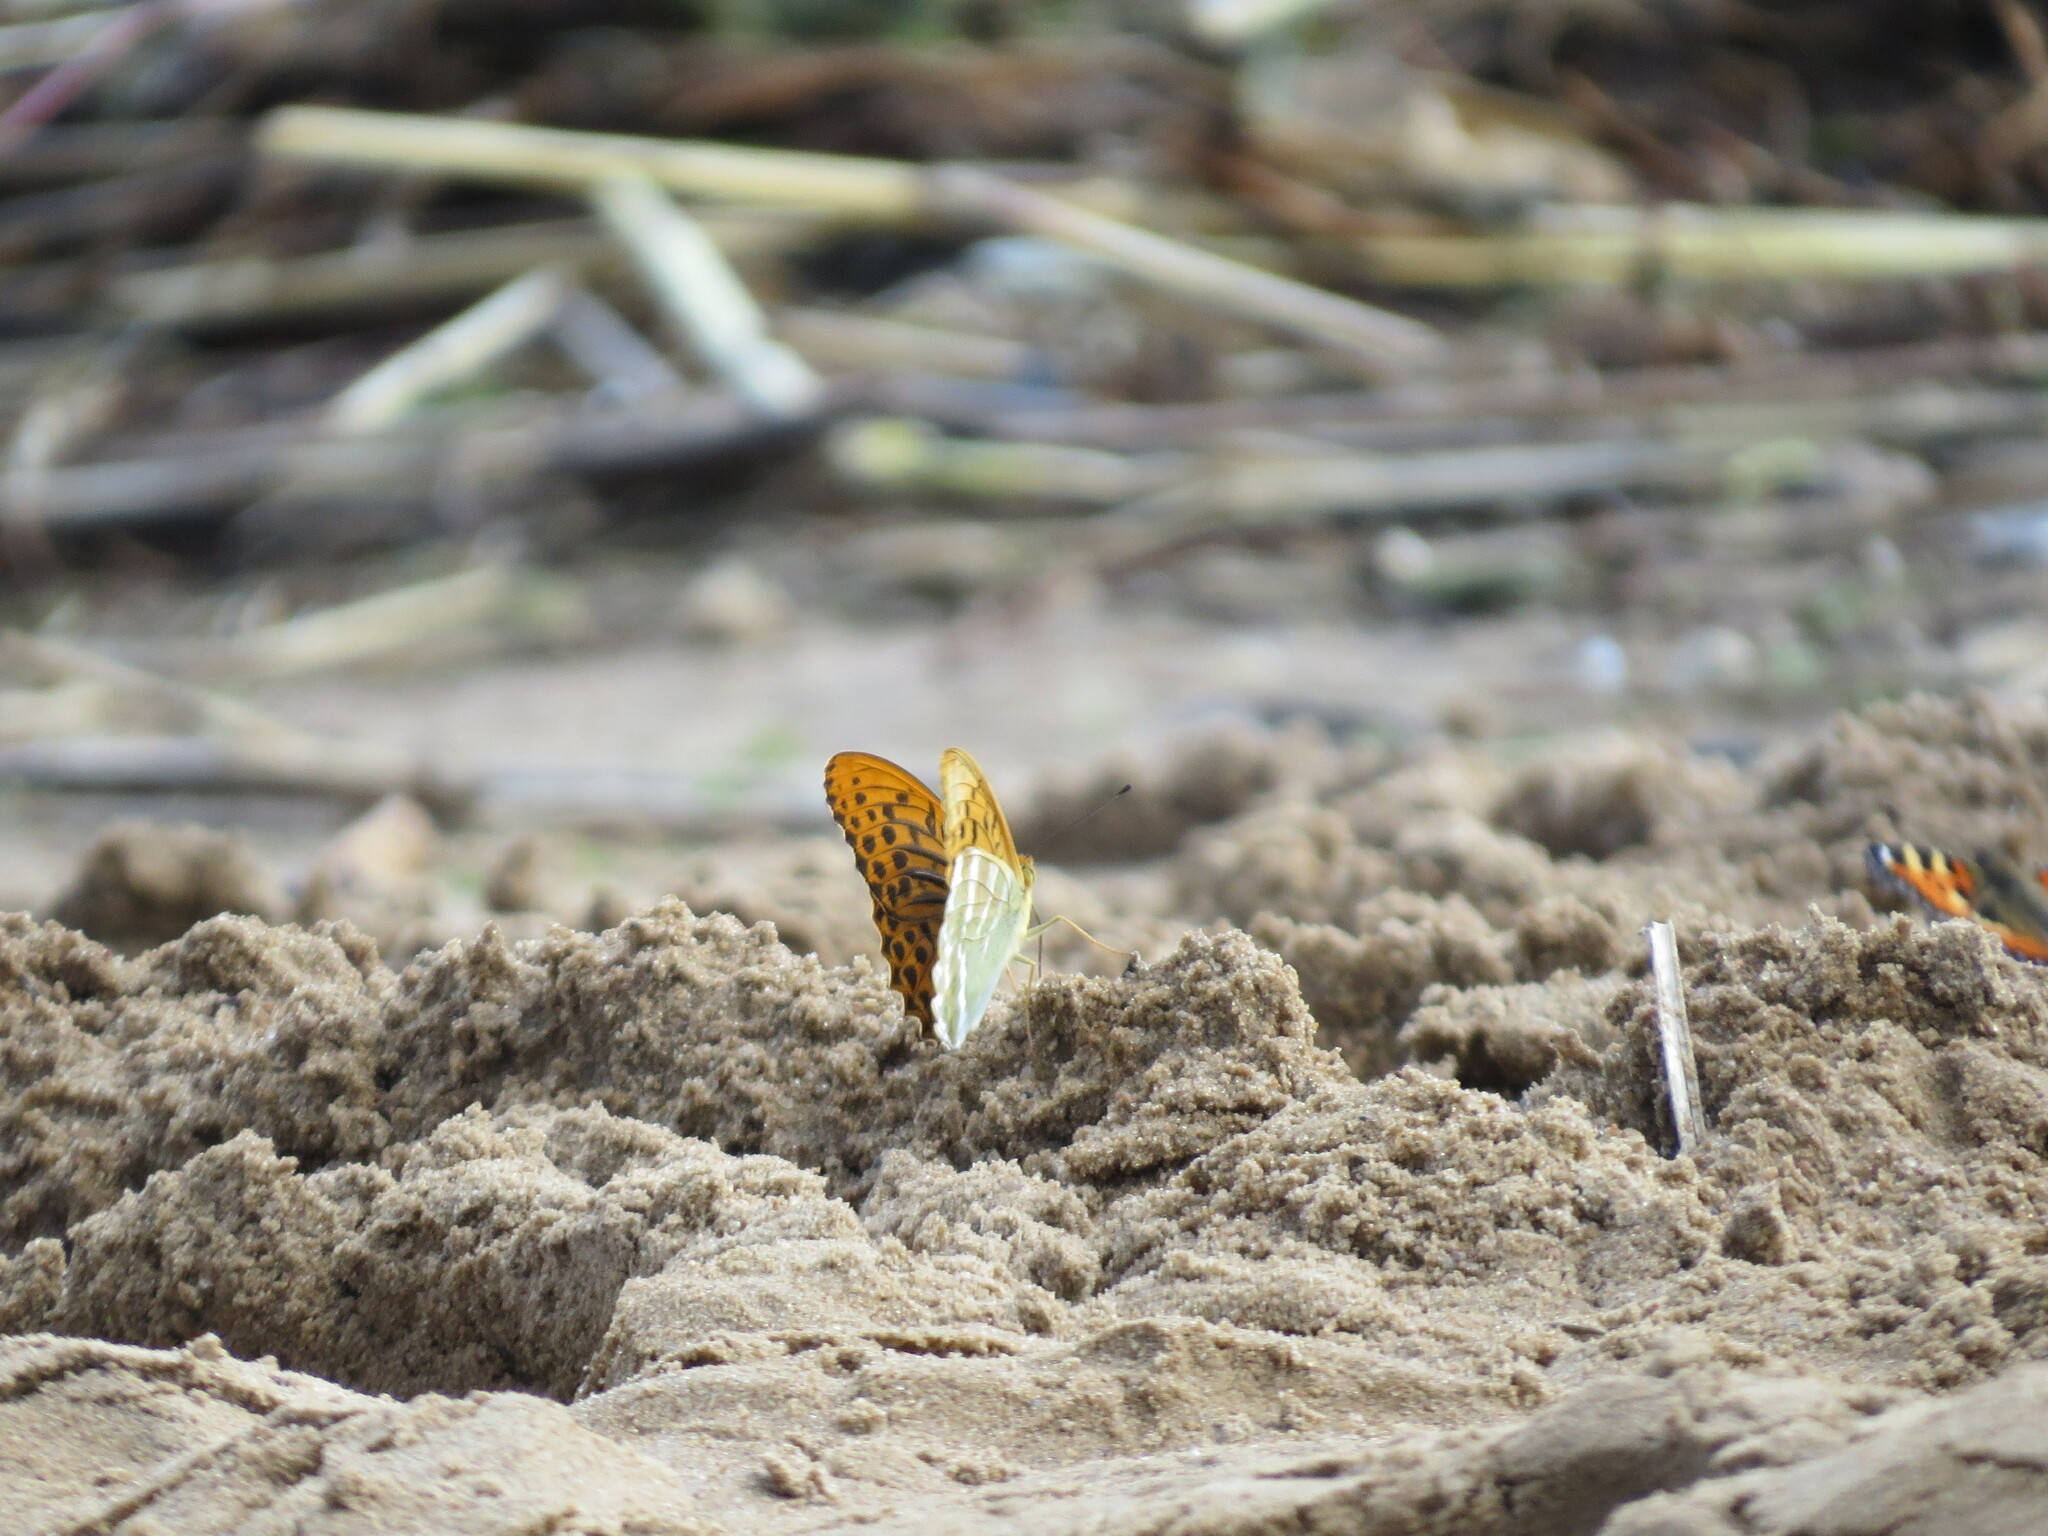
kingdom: Animalia
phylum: Arthropoda
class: Insecta
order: Lepidoptera
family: Nymphalidae
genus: Argynnis
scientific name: Argynnis paphia
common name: Silver-washed fritillary
